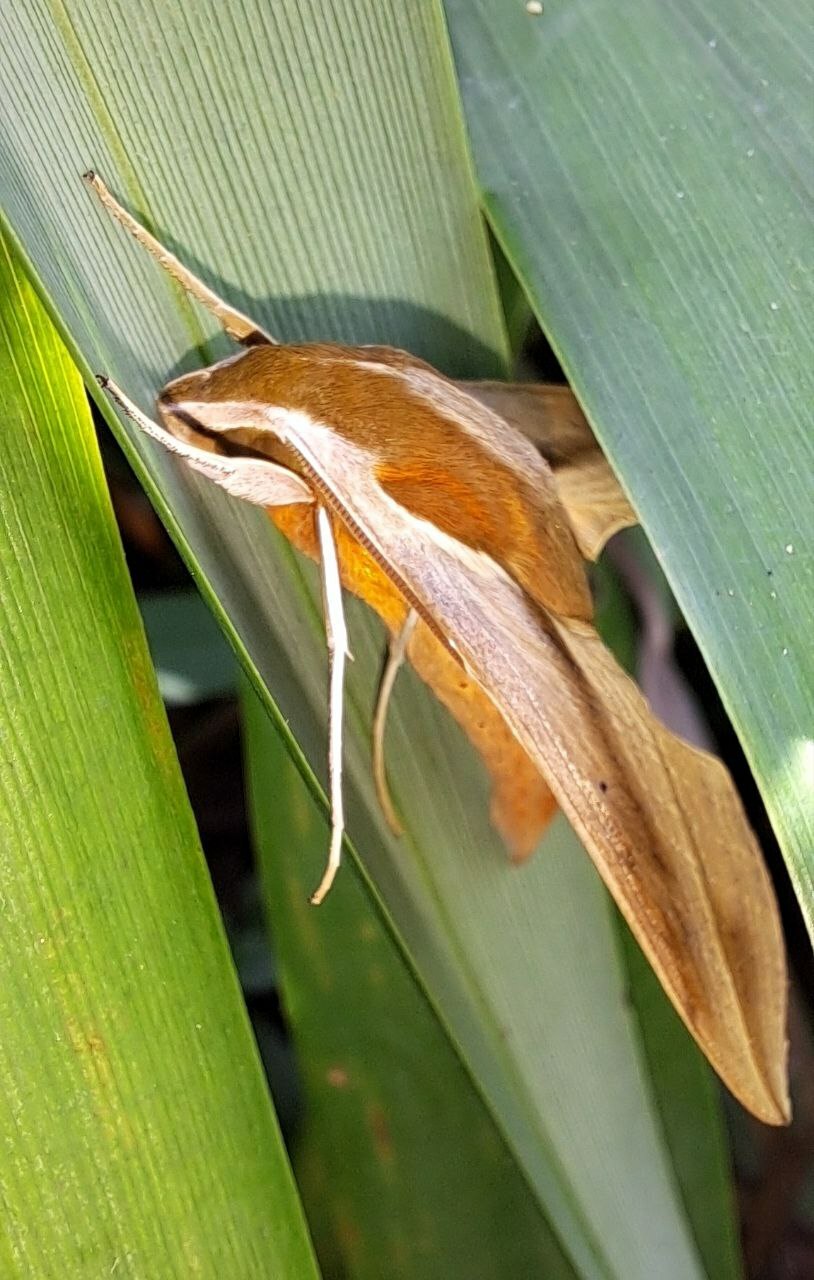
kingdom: Animalia
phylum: Arthropoda
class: Insecta
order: Lepidoptera
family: Sphingidae
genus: Hippotion
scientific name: Hippotion rosetta
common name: Vine hawk moth
